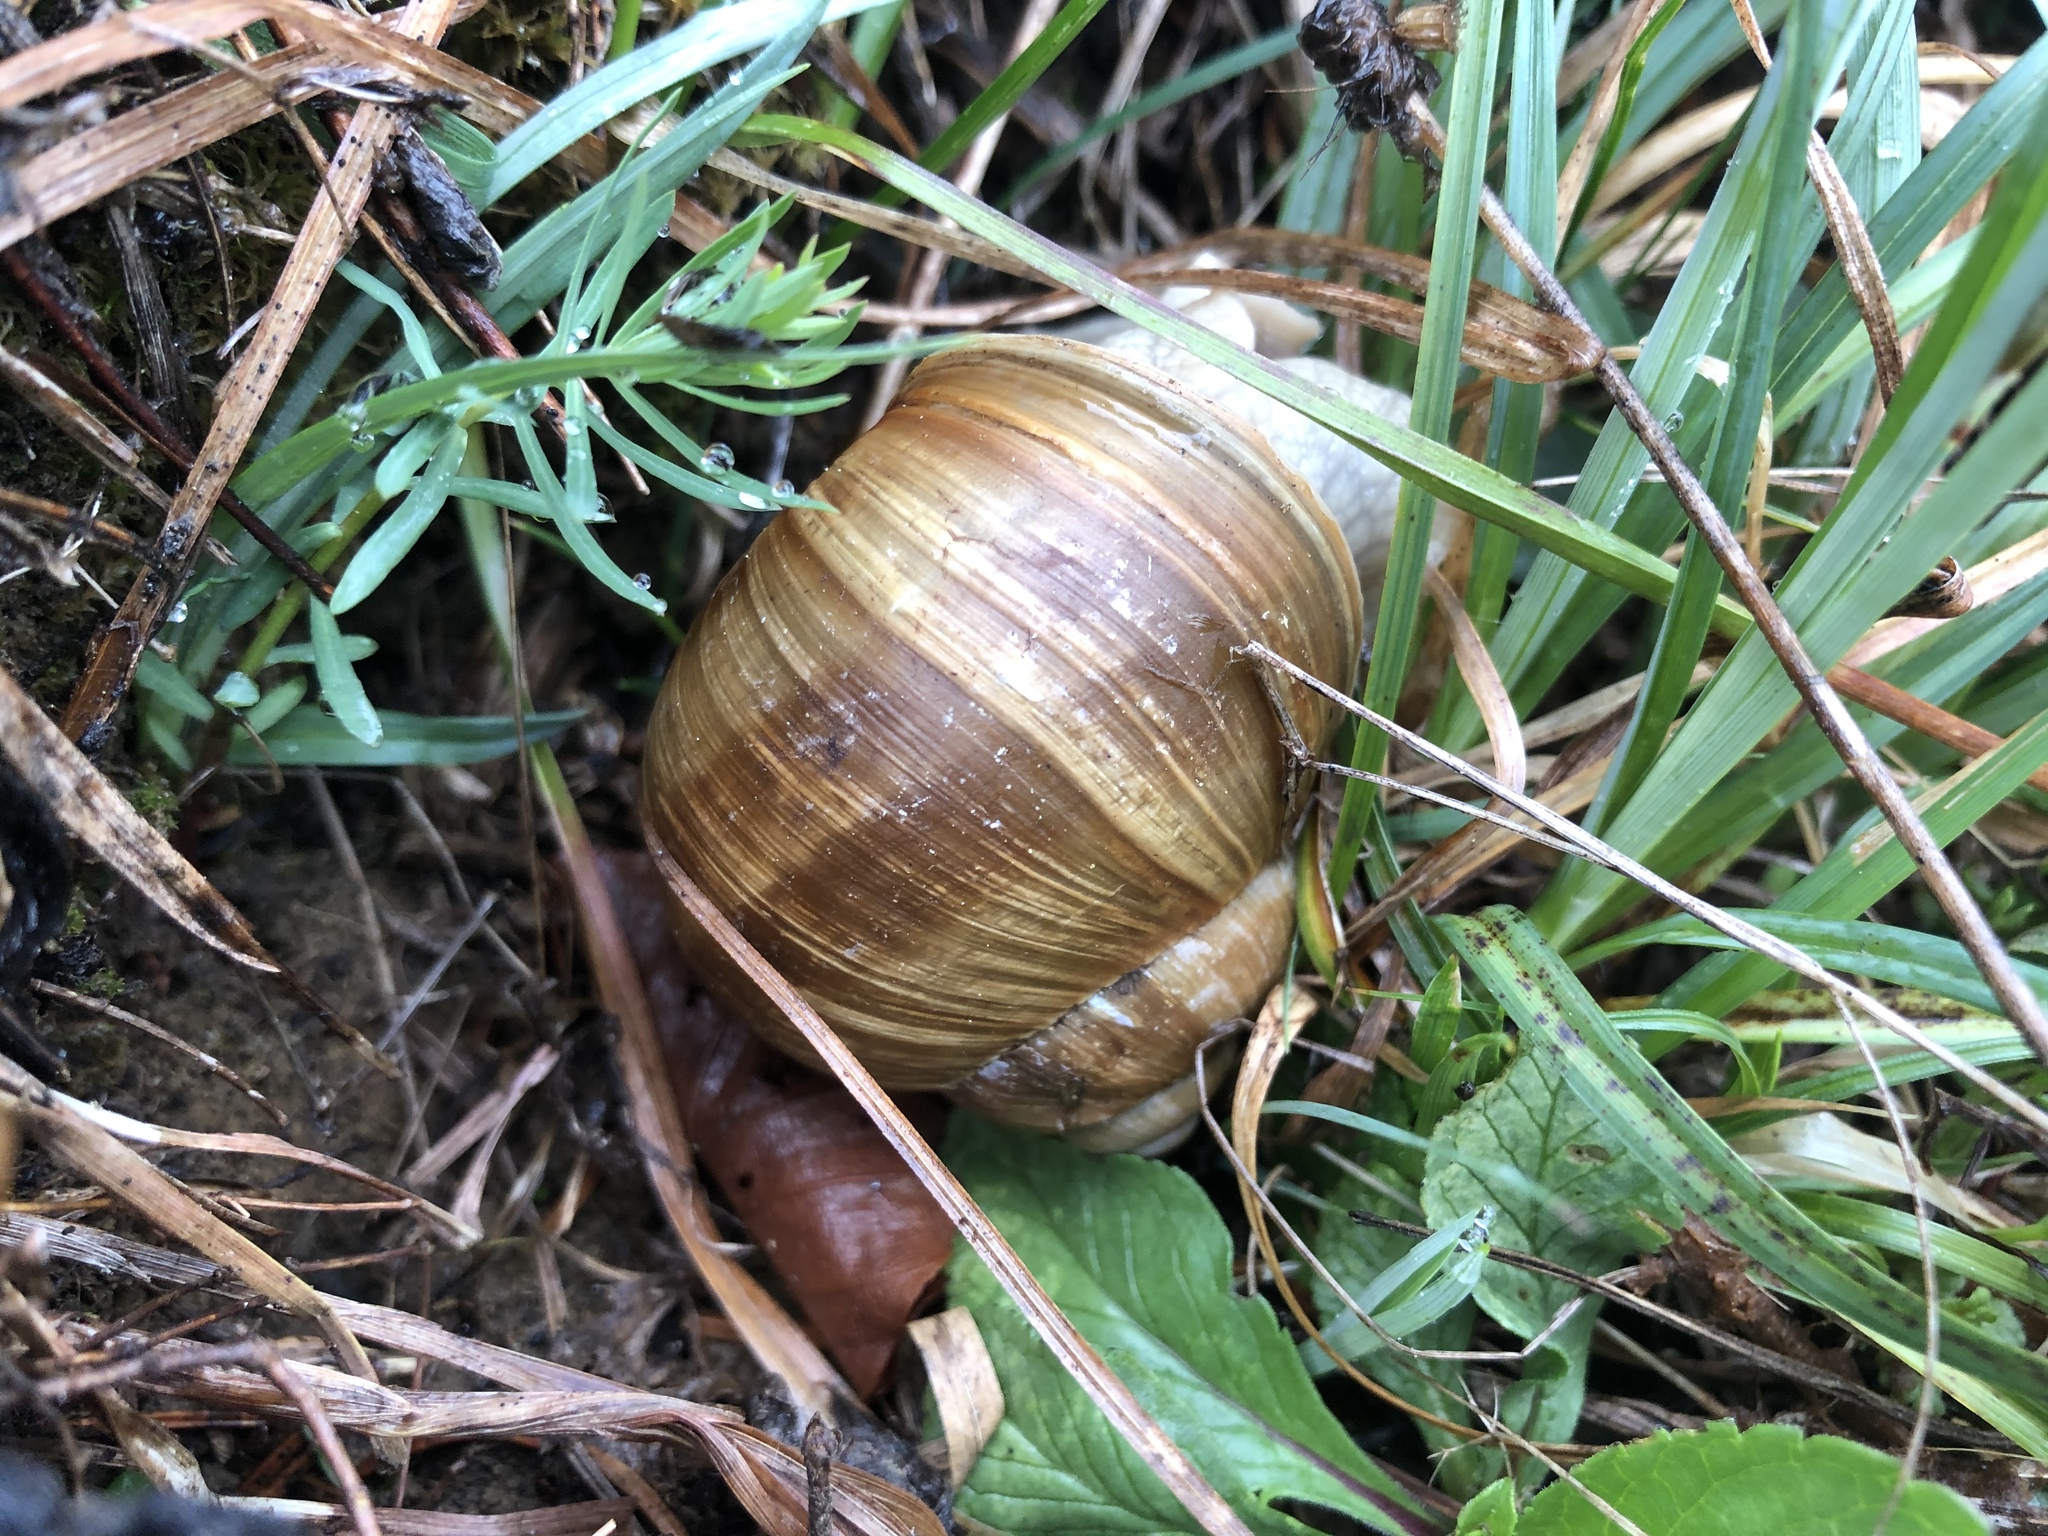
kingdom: Animalia
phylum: Mollusca
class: Gastropoda
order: Stylommatophora
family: Helicidae
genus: Helix
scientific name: Helix pomatia
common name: Roman snail
